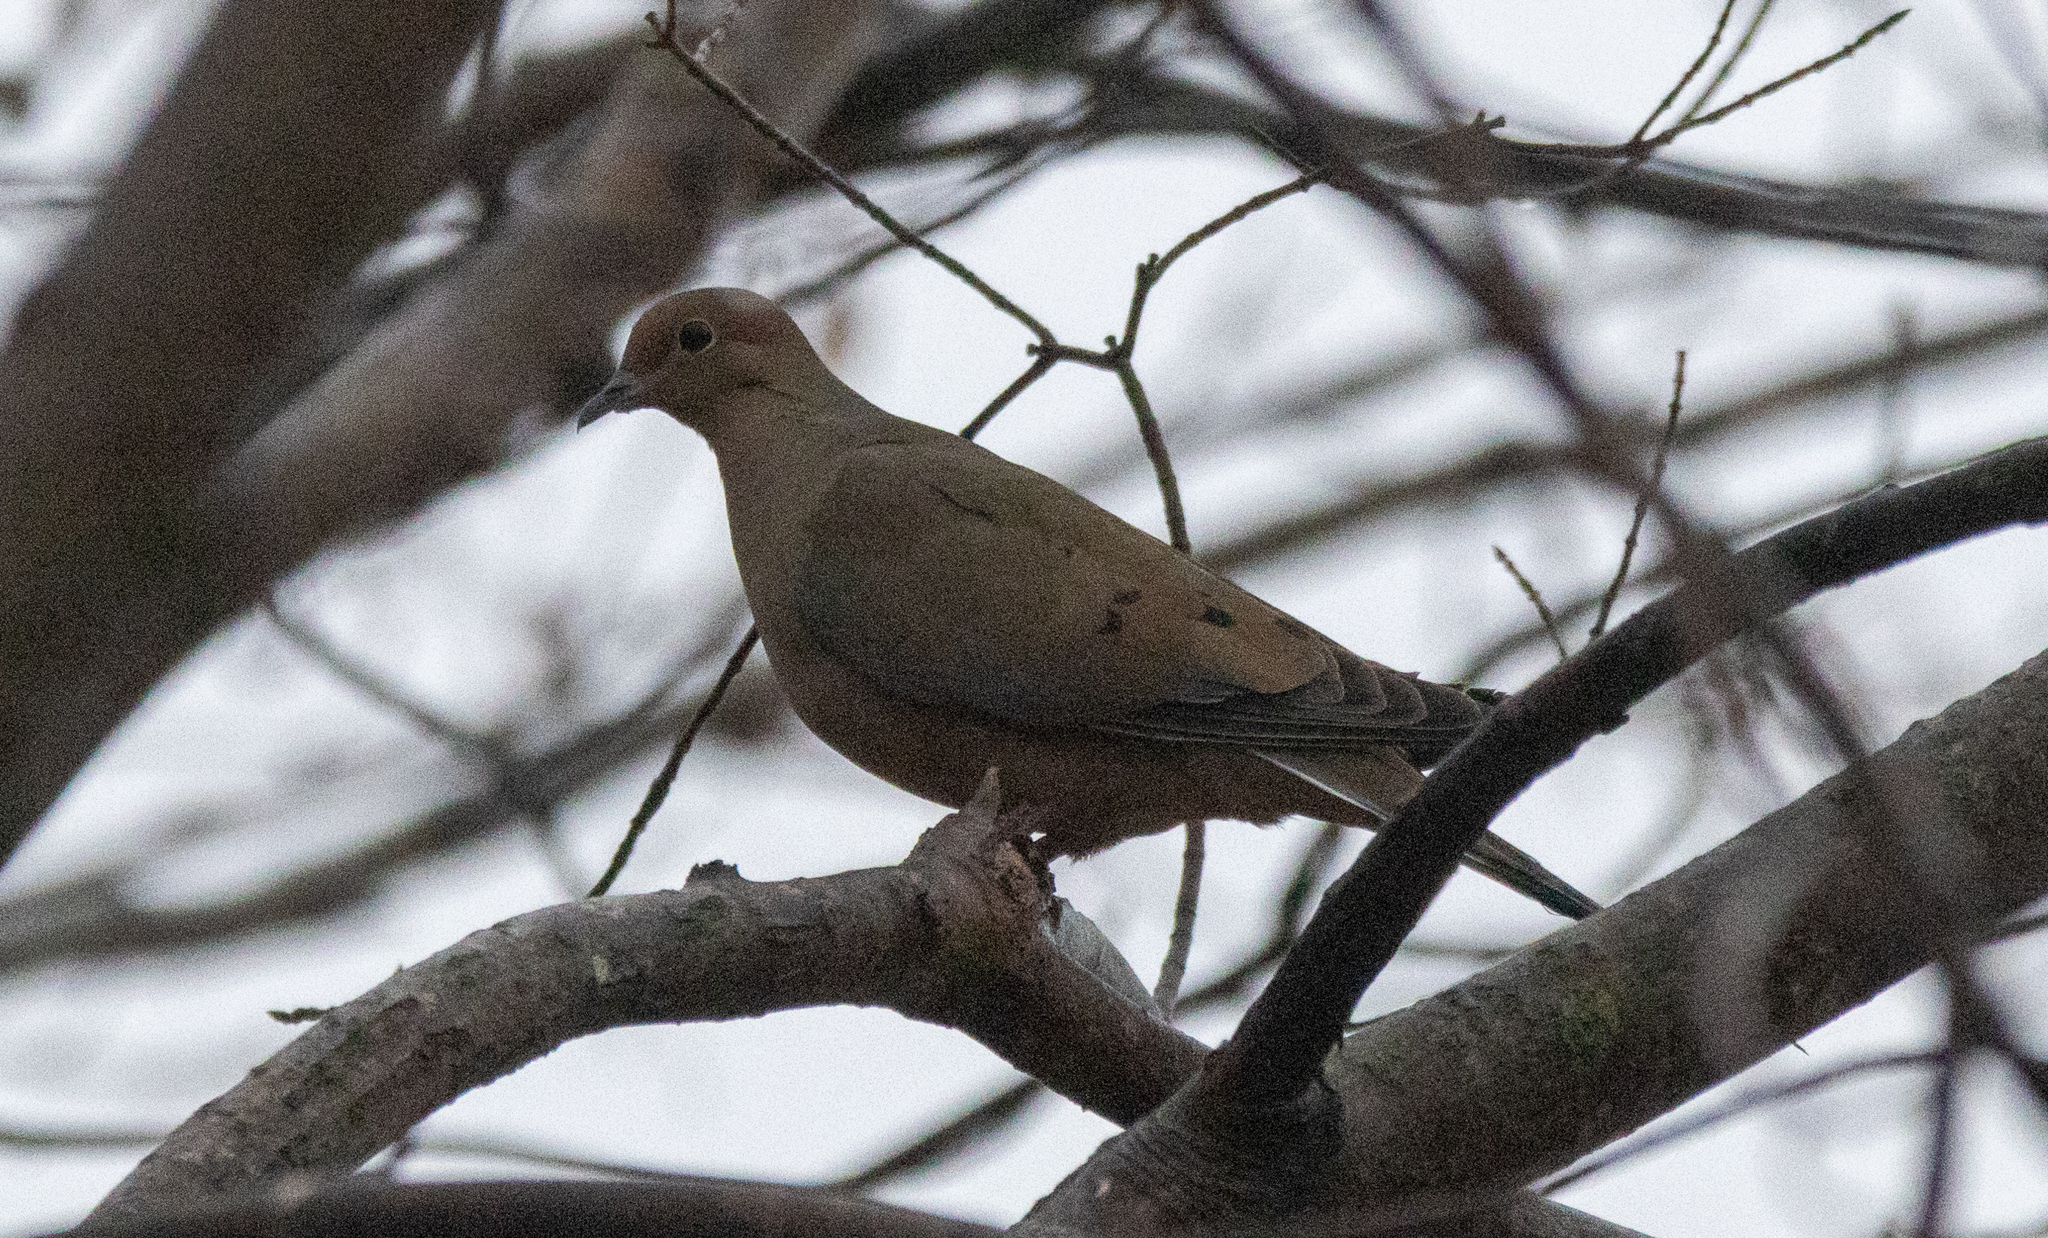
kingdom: Animalia
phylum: Chordata
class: Aves
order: Columbiformes
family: Columbidae
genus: Zenaida
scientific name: Zenaida macroura
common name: Mourning dove
